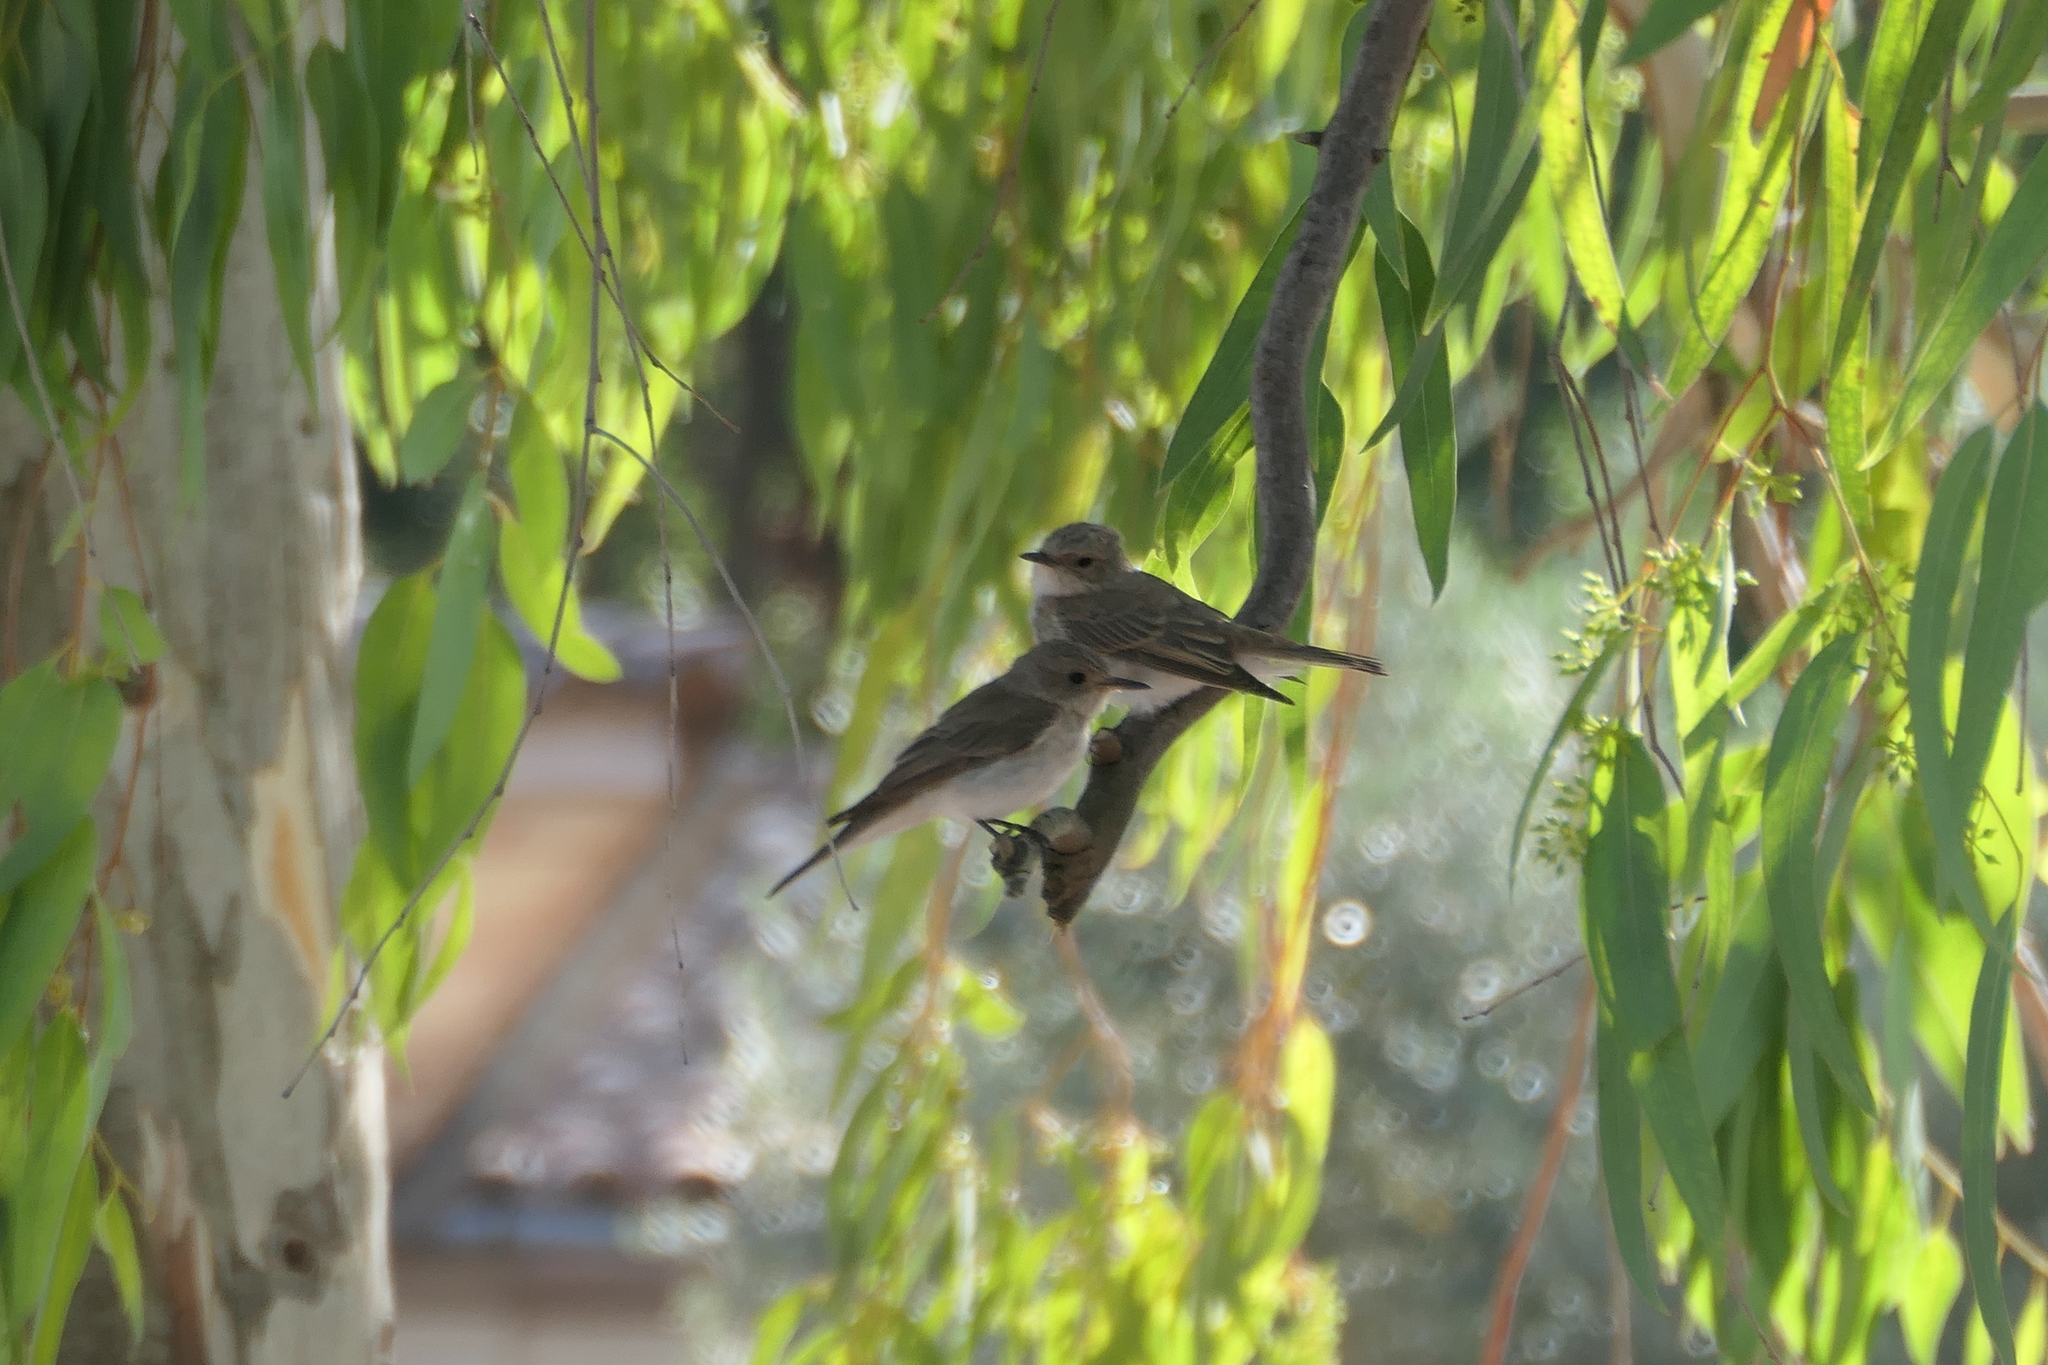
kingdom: Animalia
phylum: Chordata
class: Aves
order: Passeriformes
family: Muscicapidae
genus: Muscicapa
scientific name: Muscicapa striata
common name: Spotted flycatcher
